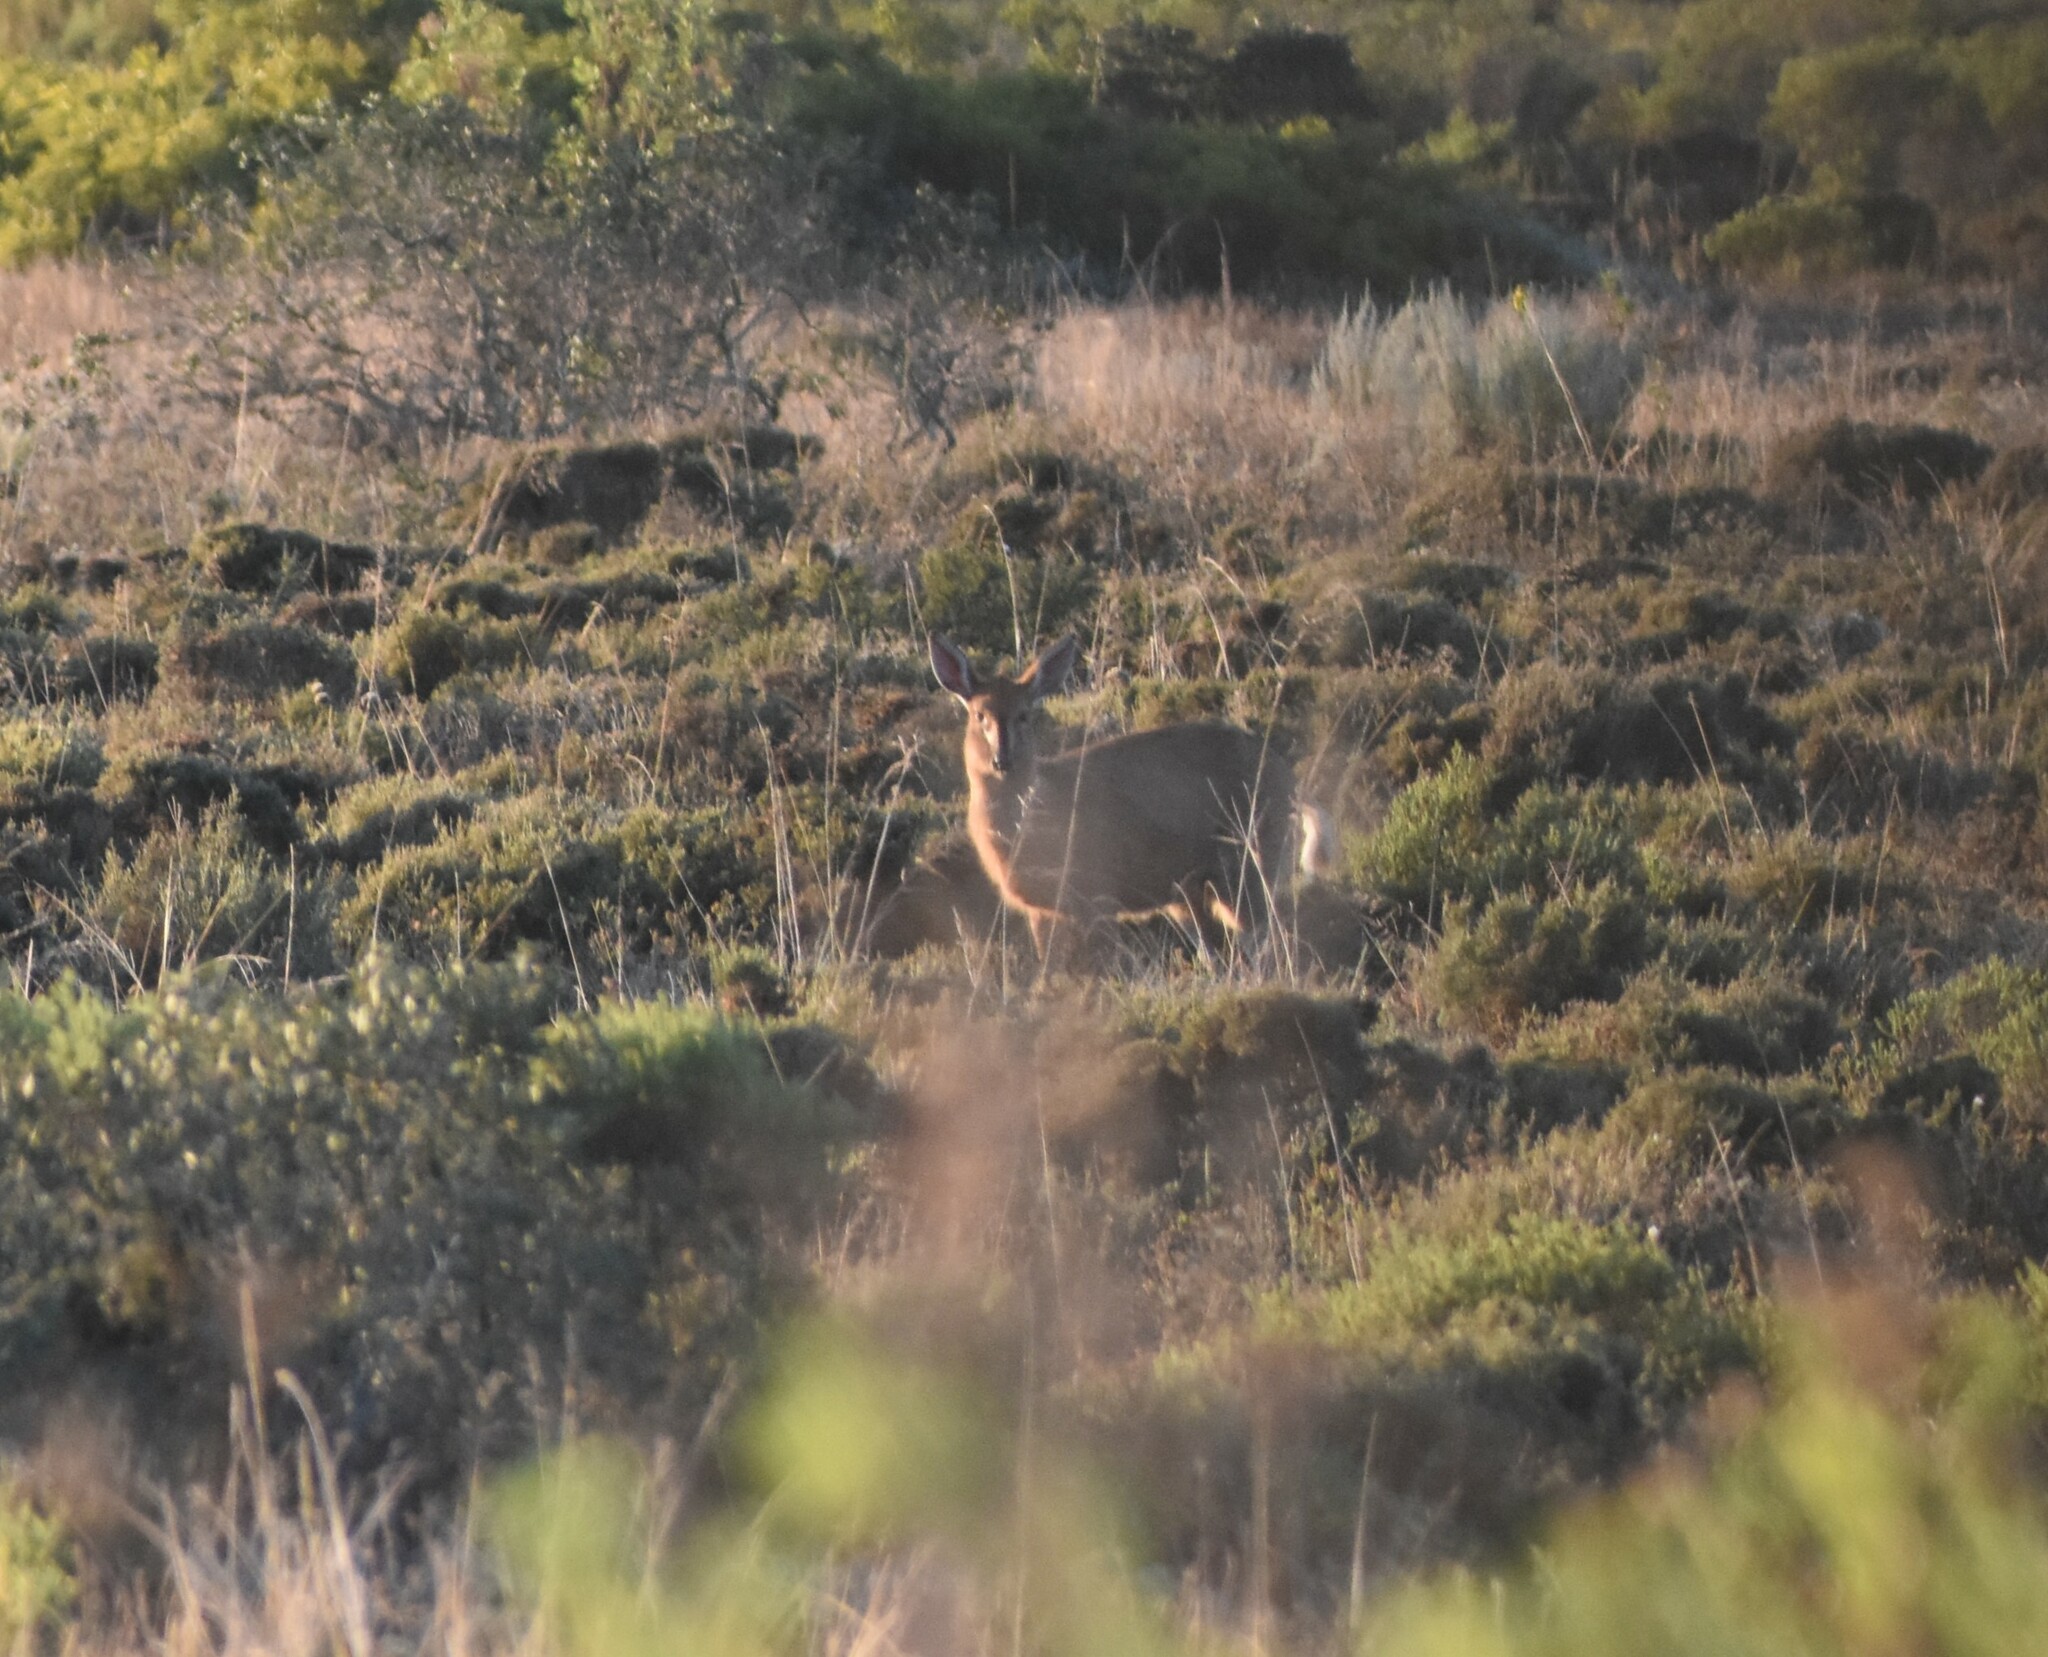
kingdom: Animalia
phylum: Chordata
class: Mammalia
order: Artiodactyla
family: Bovidae
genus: Sylvicapra
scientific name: Sylvicapra grimmia
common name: Bush duiker
